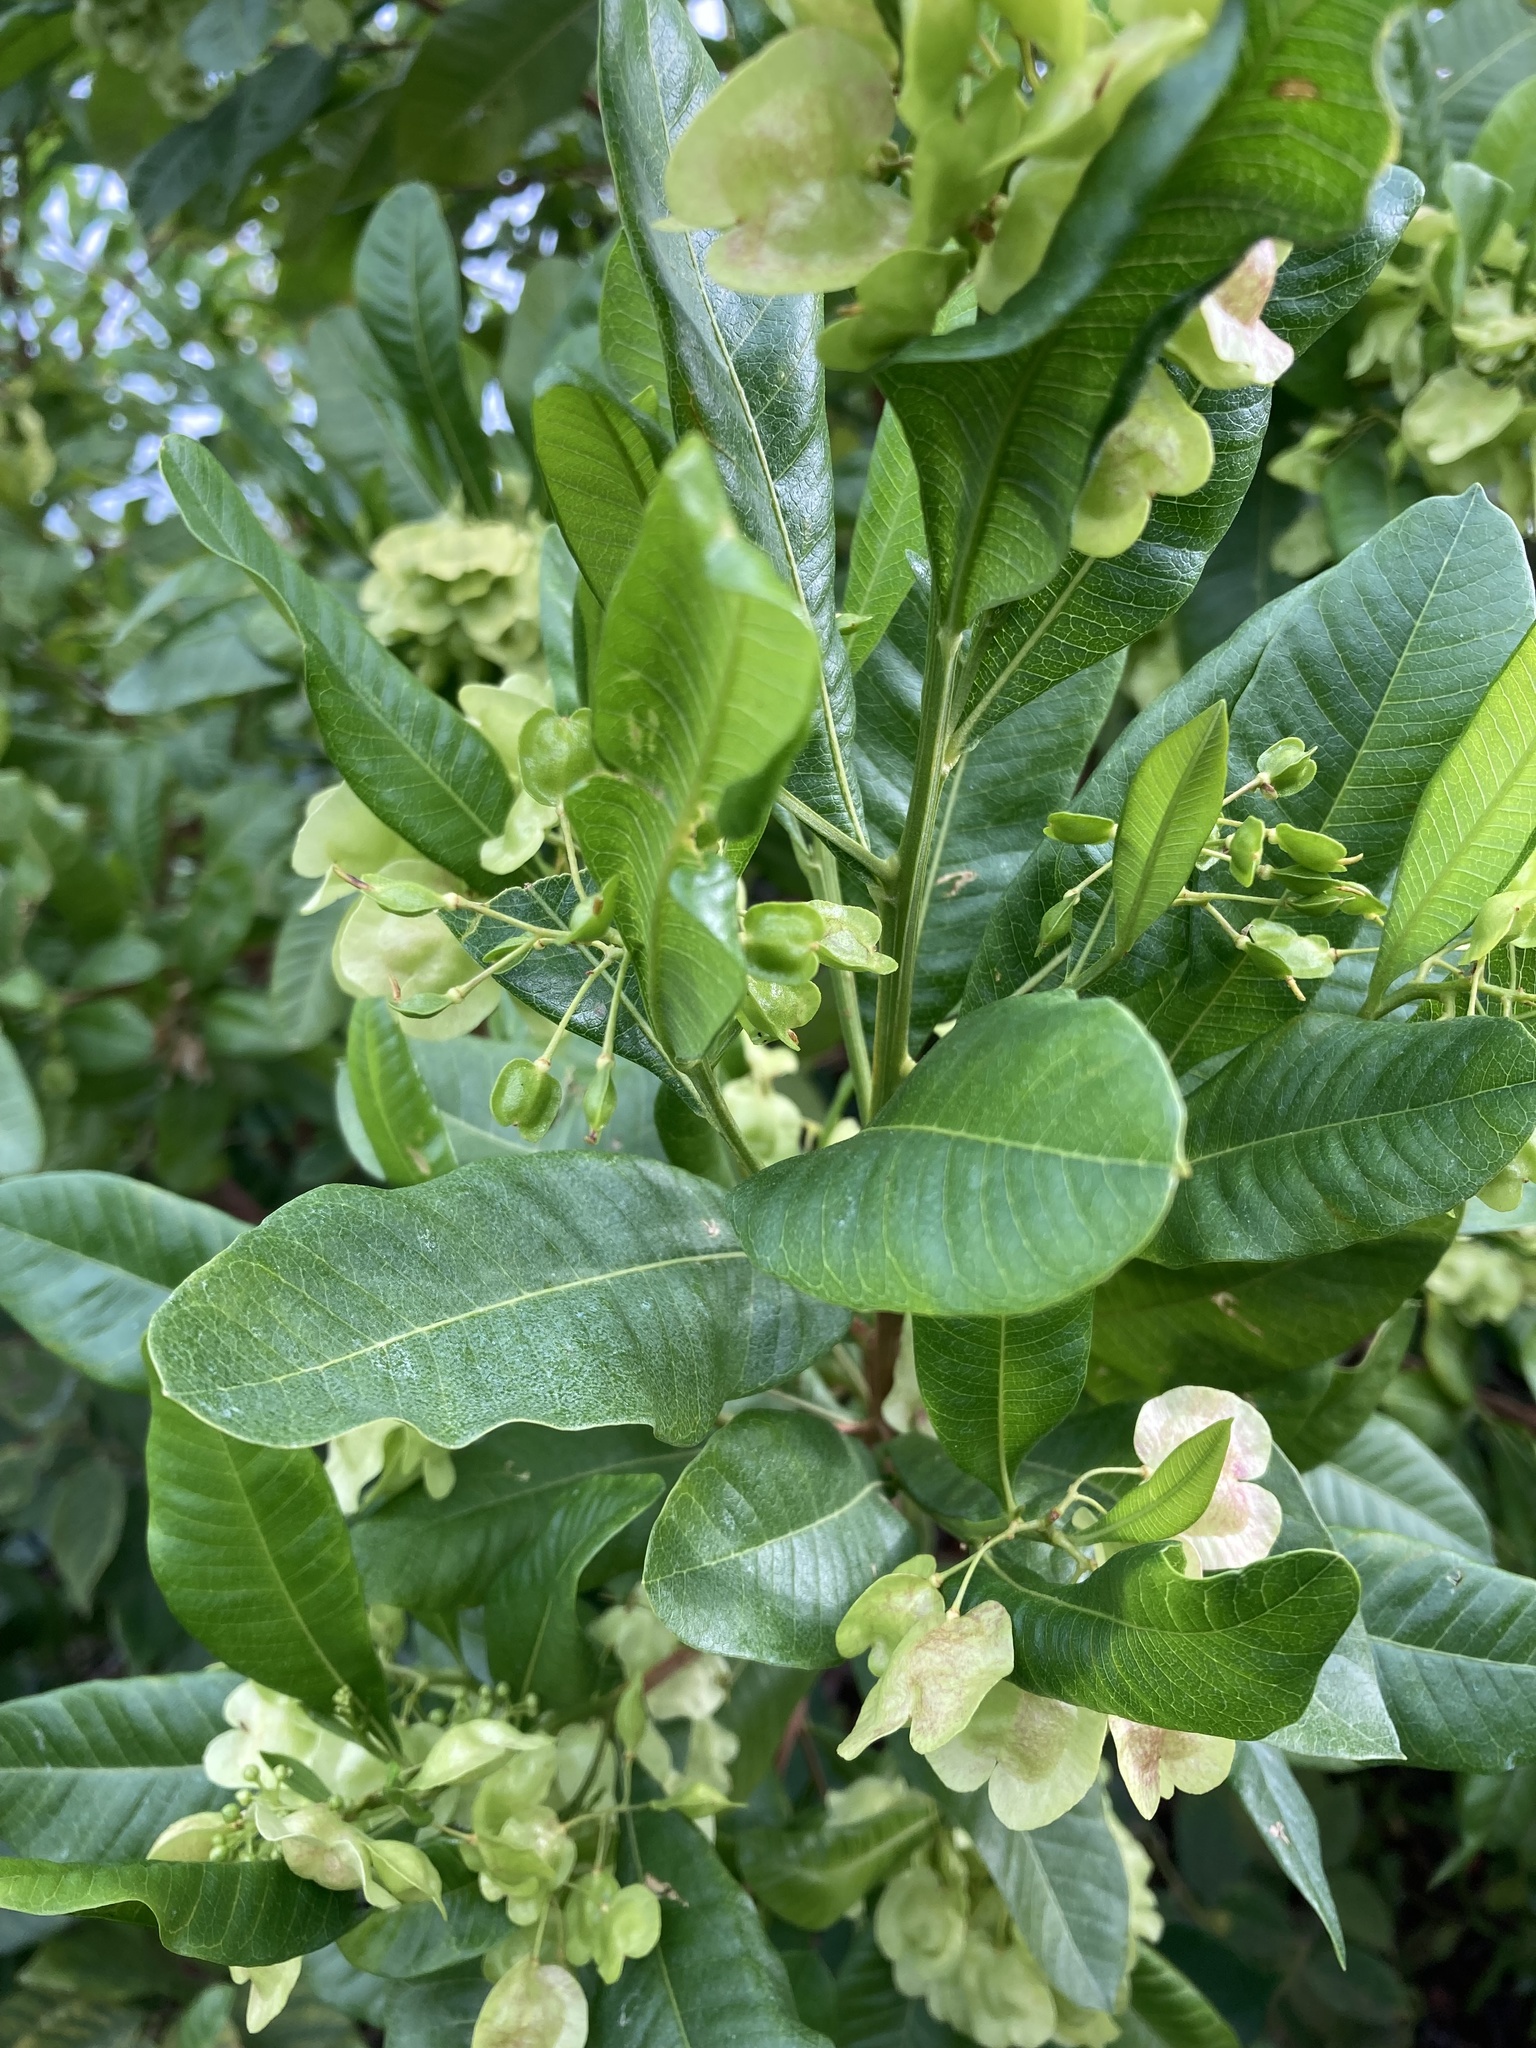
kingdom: Plantae
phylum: Tracheophyta
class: Magnoliopsida
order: Sapindales
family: Sapindaceae
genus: Dodonaea
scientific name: Dodonaea viscosa
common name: Hopbush
